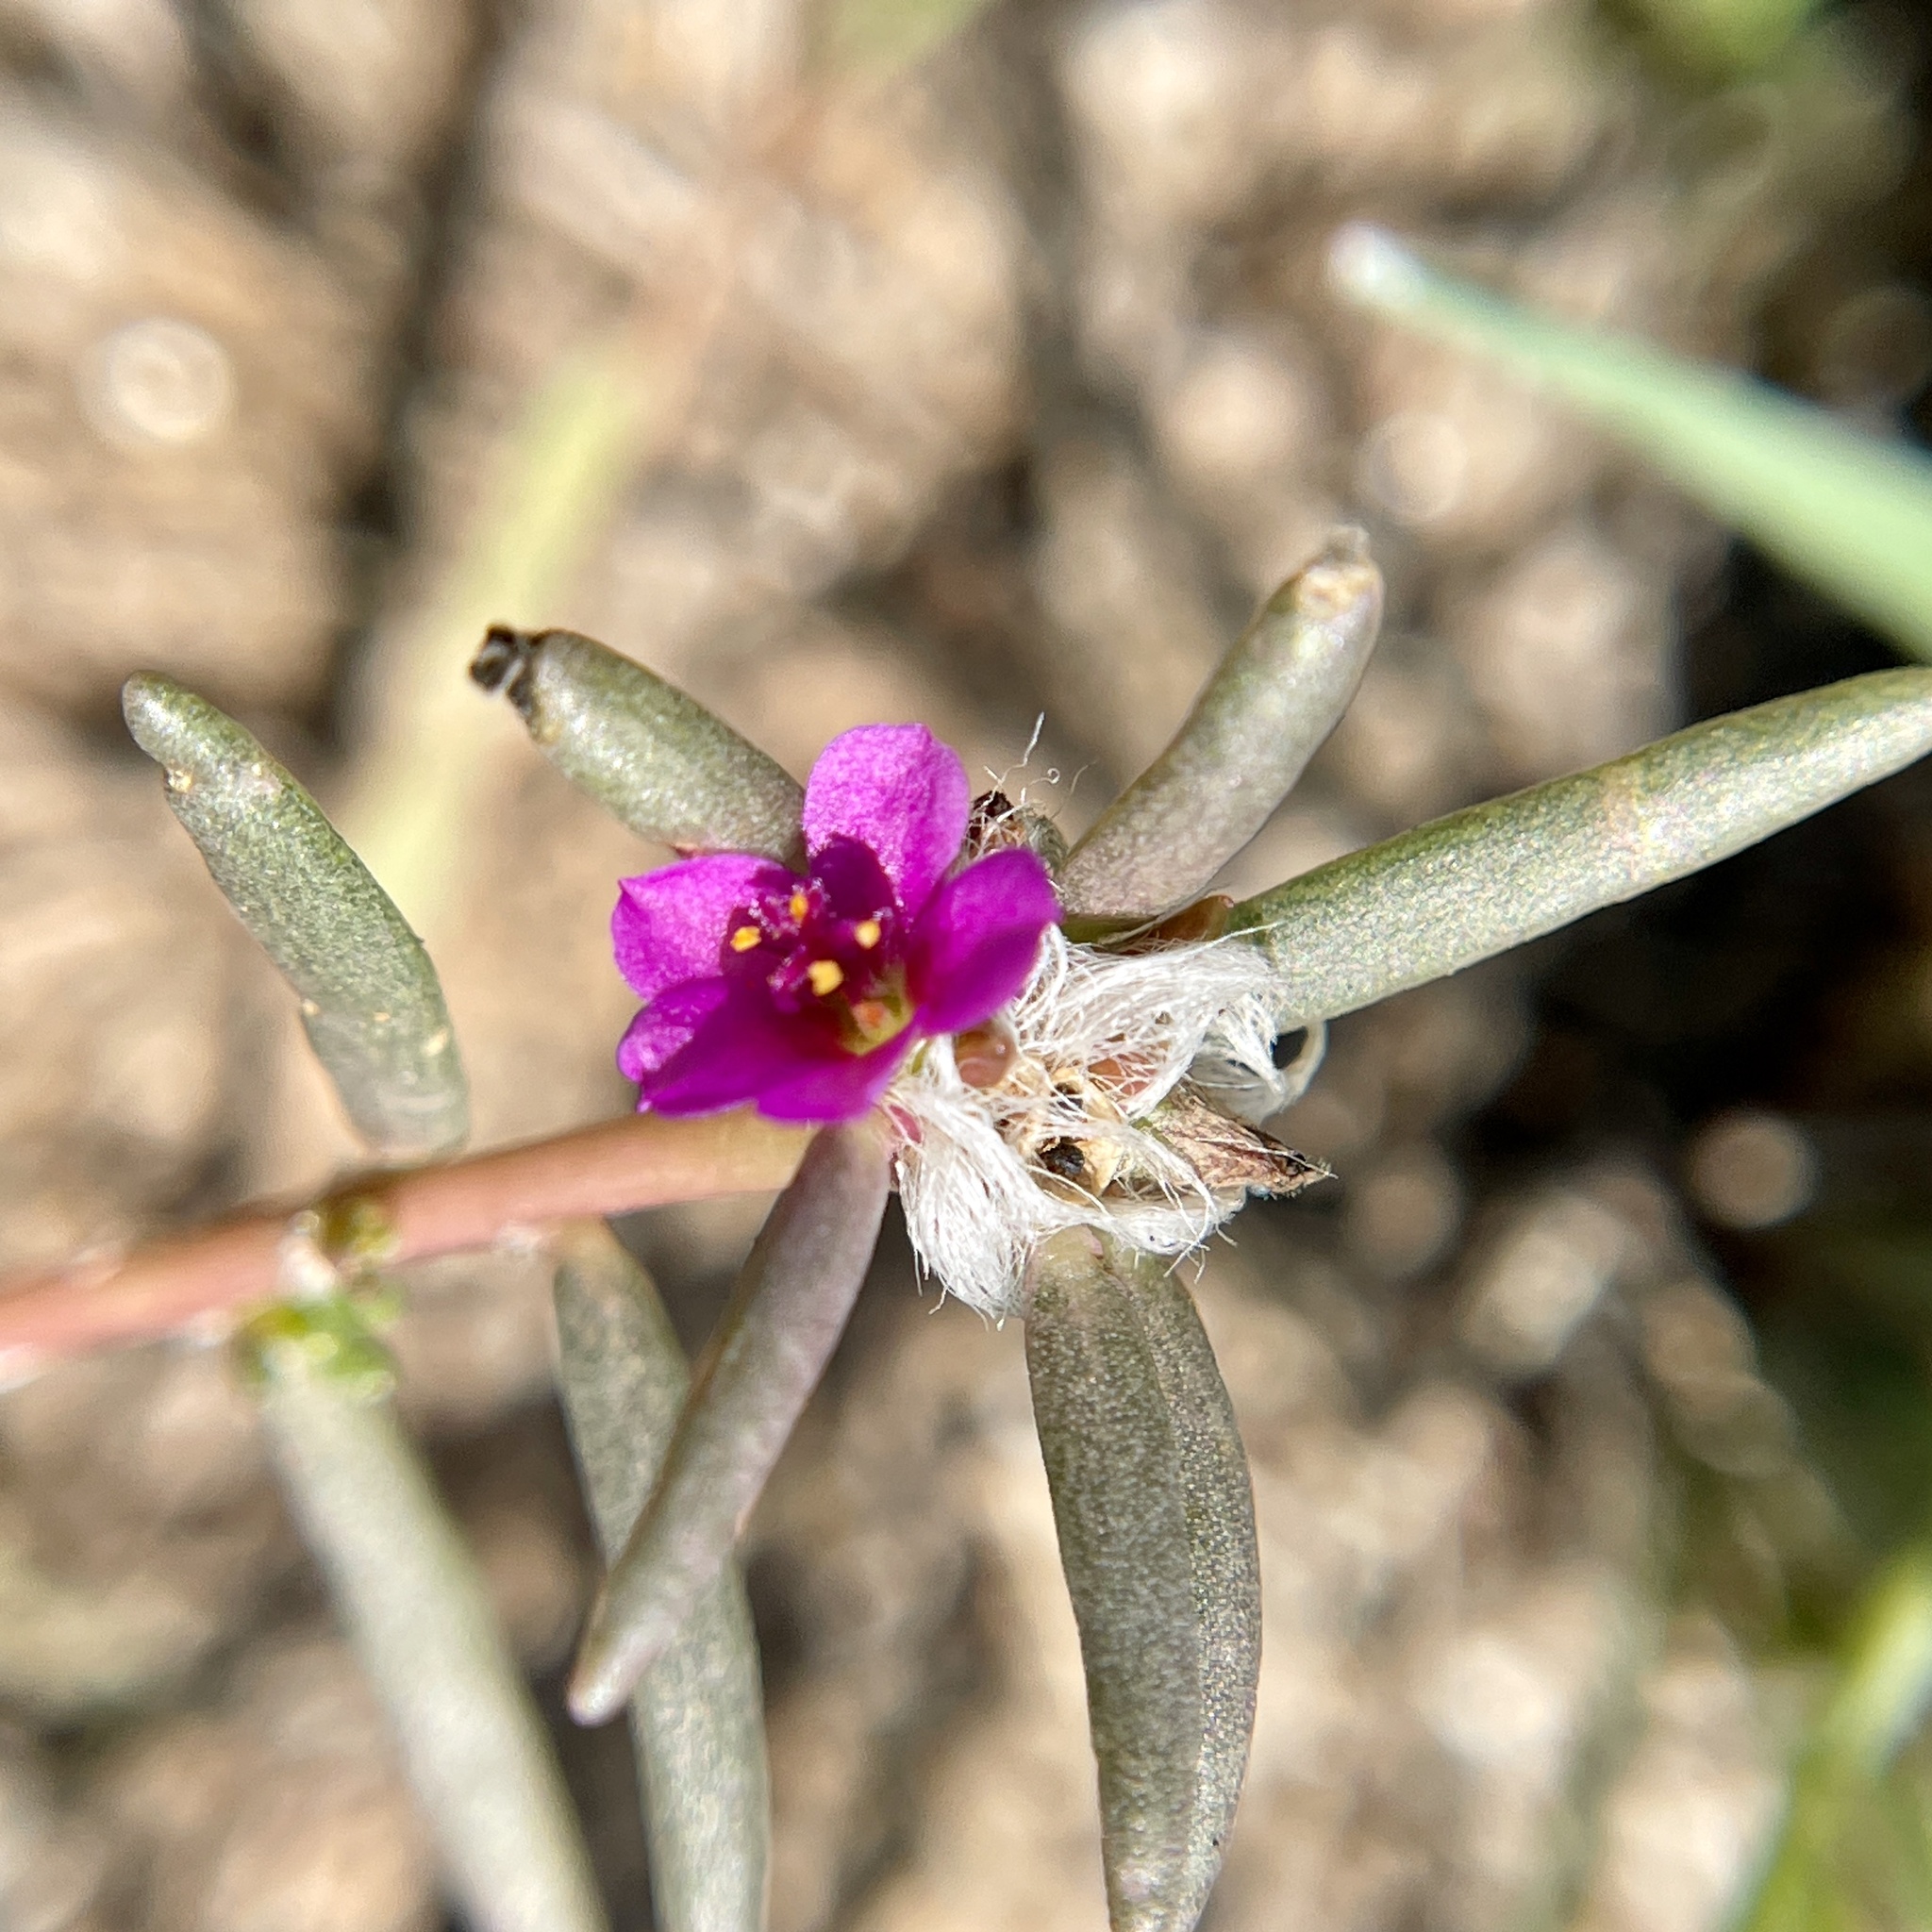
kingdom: Plantae
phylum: Tracheophyta
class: Magnoliopsida
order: Caryophyllales
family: Portulacaceae
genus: Portulaca
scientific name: Portulaca pilosa
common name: Kiss me quick
